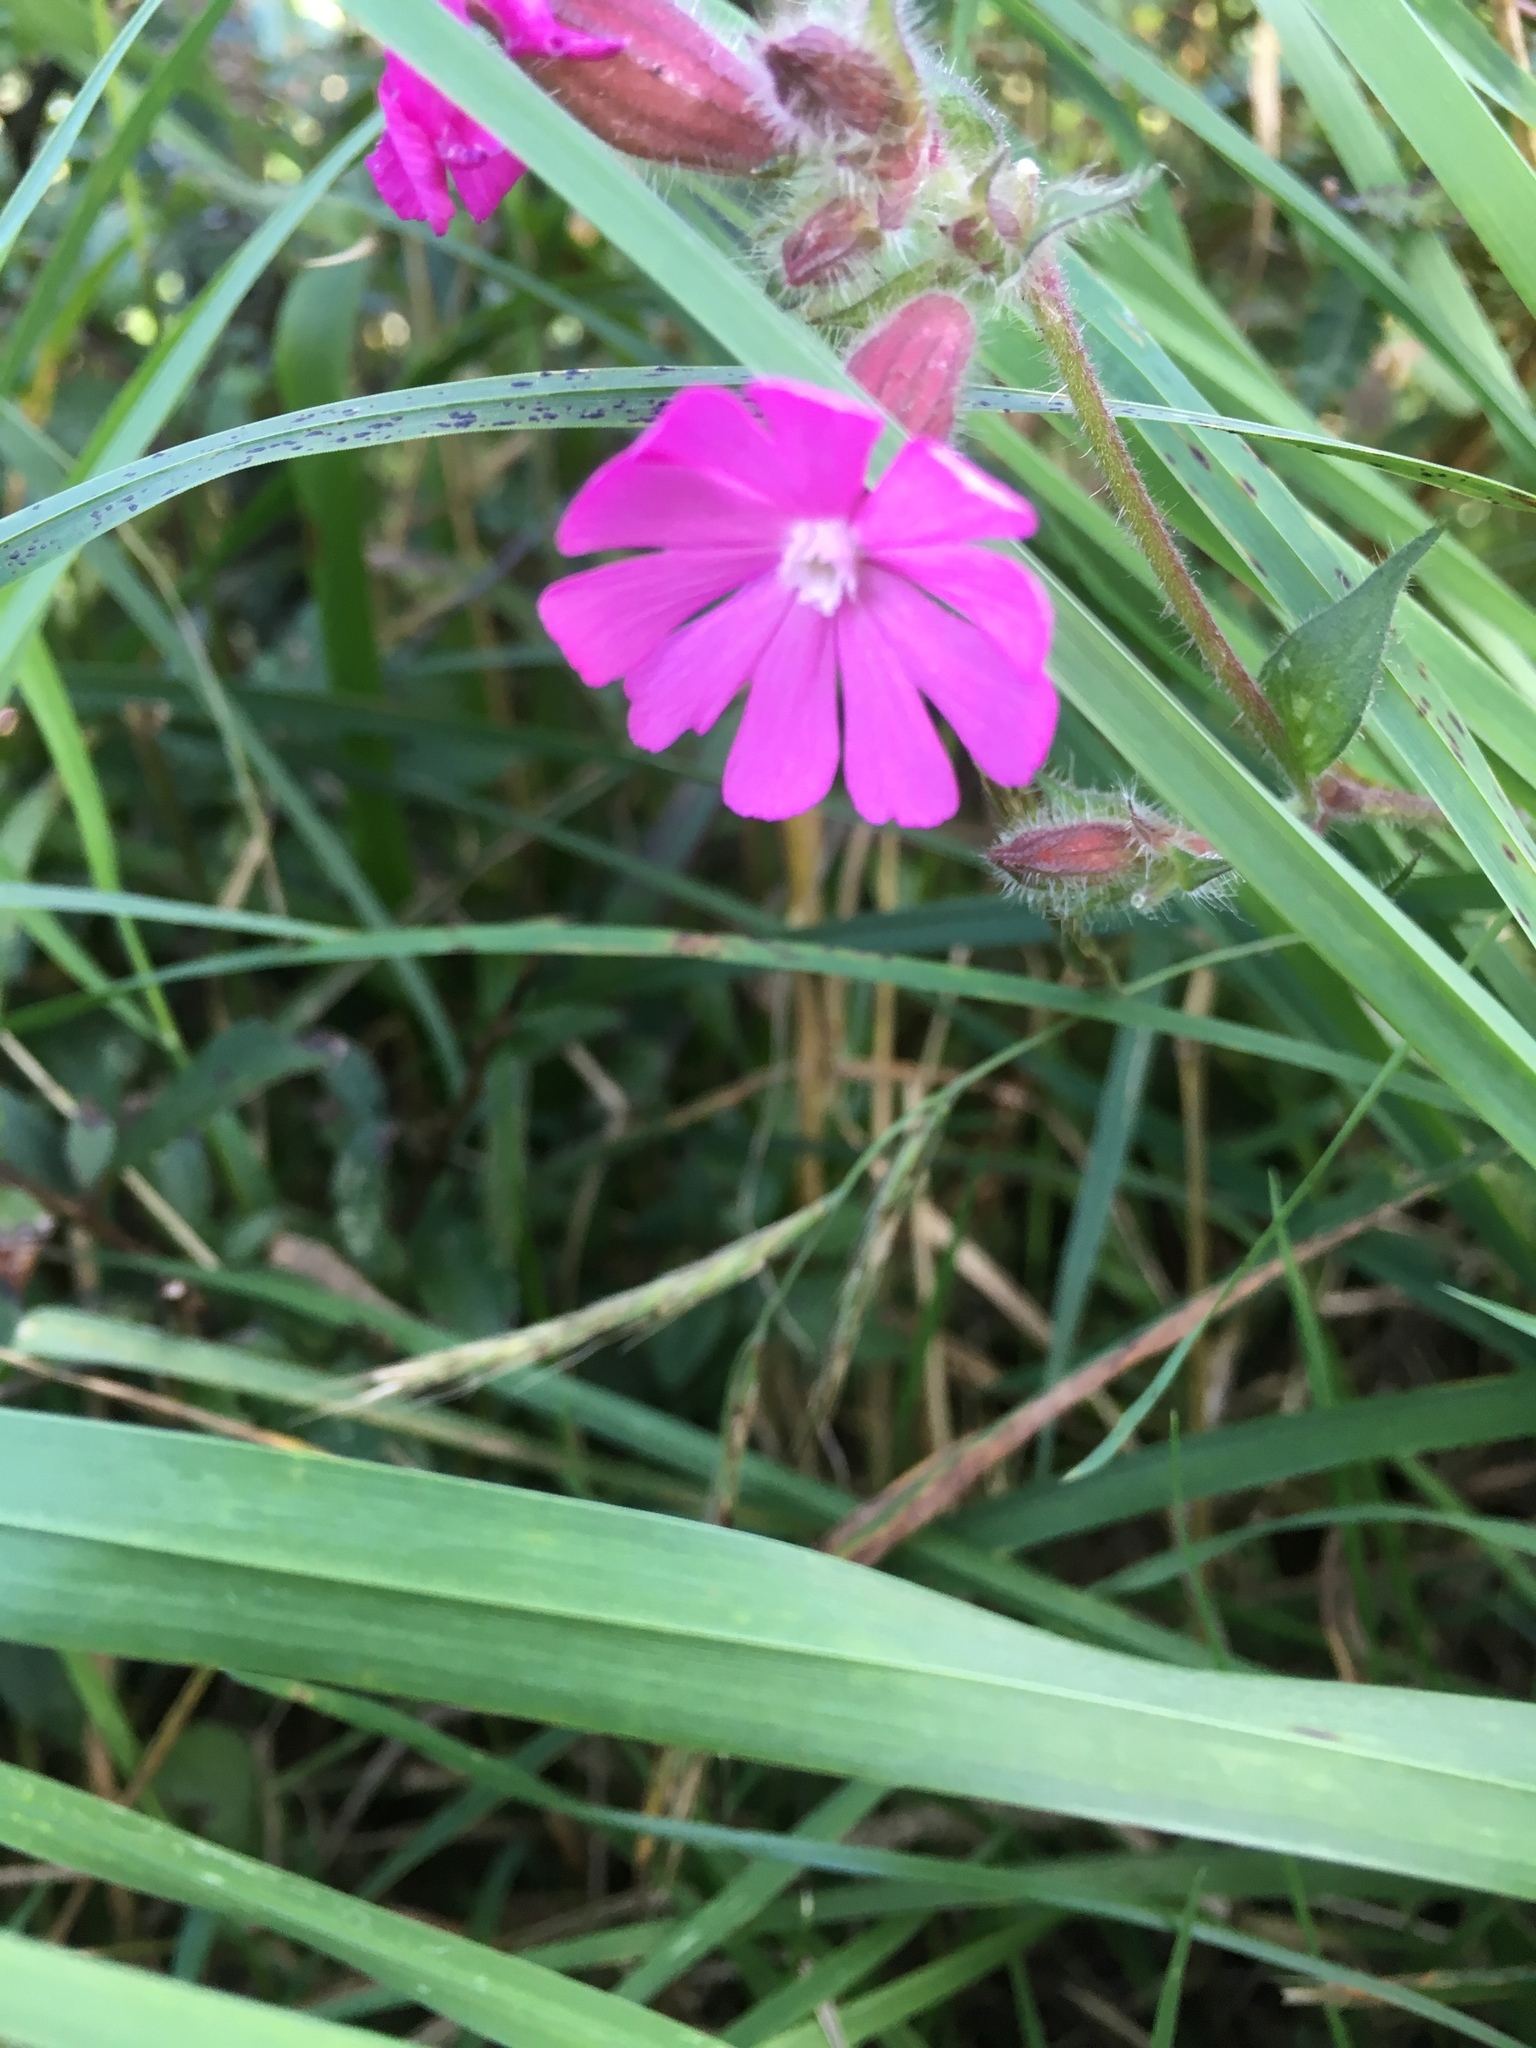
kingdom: Plantae
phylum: Tracheophyta
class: Magnoliopsida
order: Caryophyllales
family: Caryophyllaceae
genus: Silene
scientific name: Silene dioica
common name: Red campion
